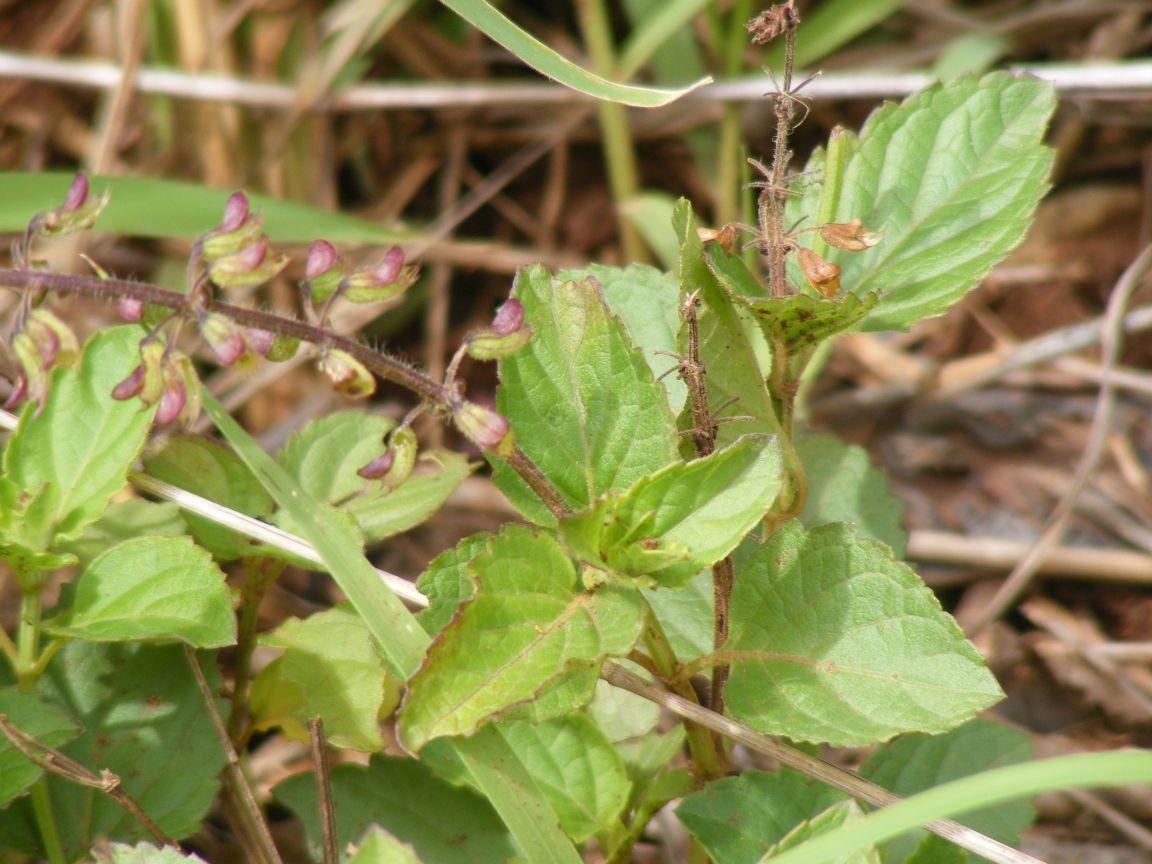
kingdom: Plantae
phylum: Tracheophyta
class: Magnoliopsida
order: Lamiales
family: Lamiaceae
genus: Orthosiphon
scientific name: Orthosiphon thymiflorus
